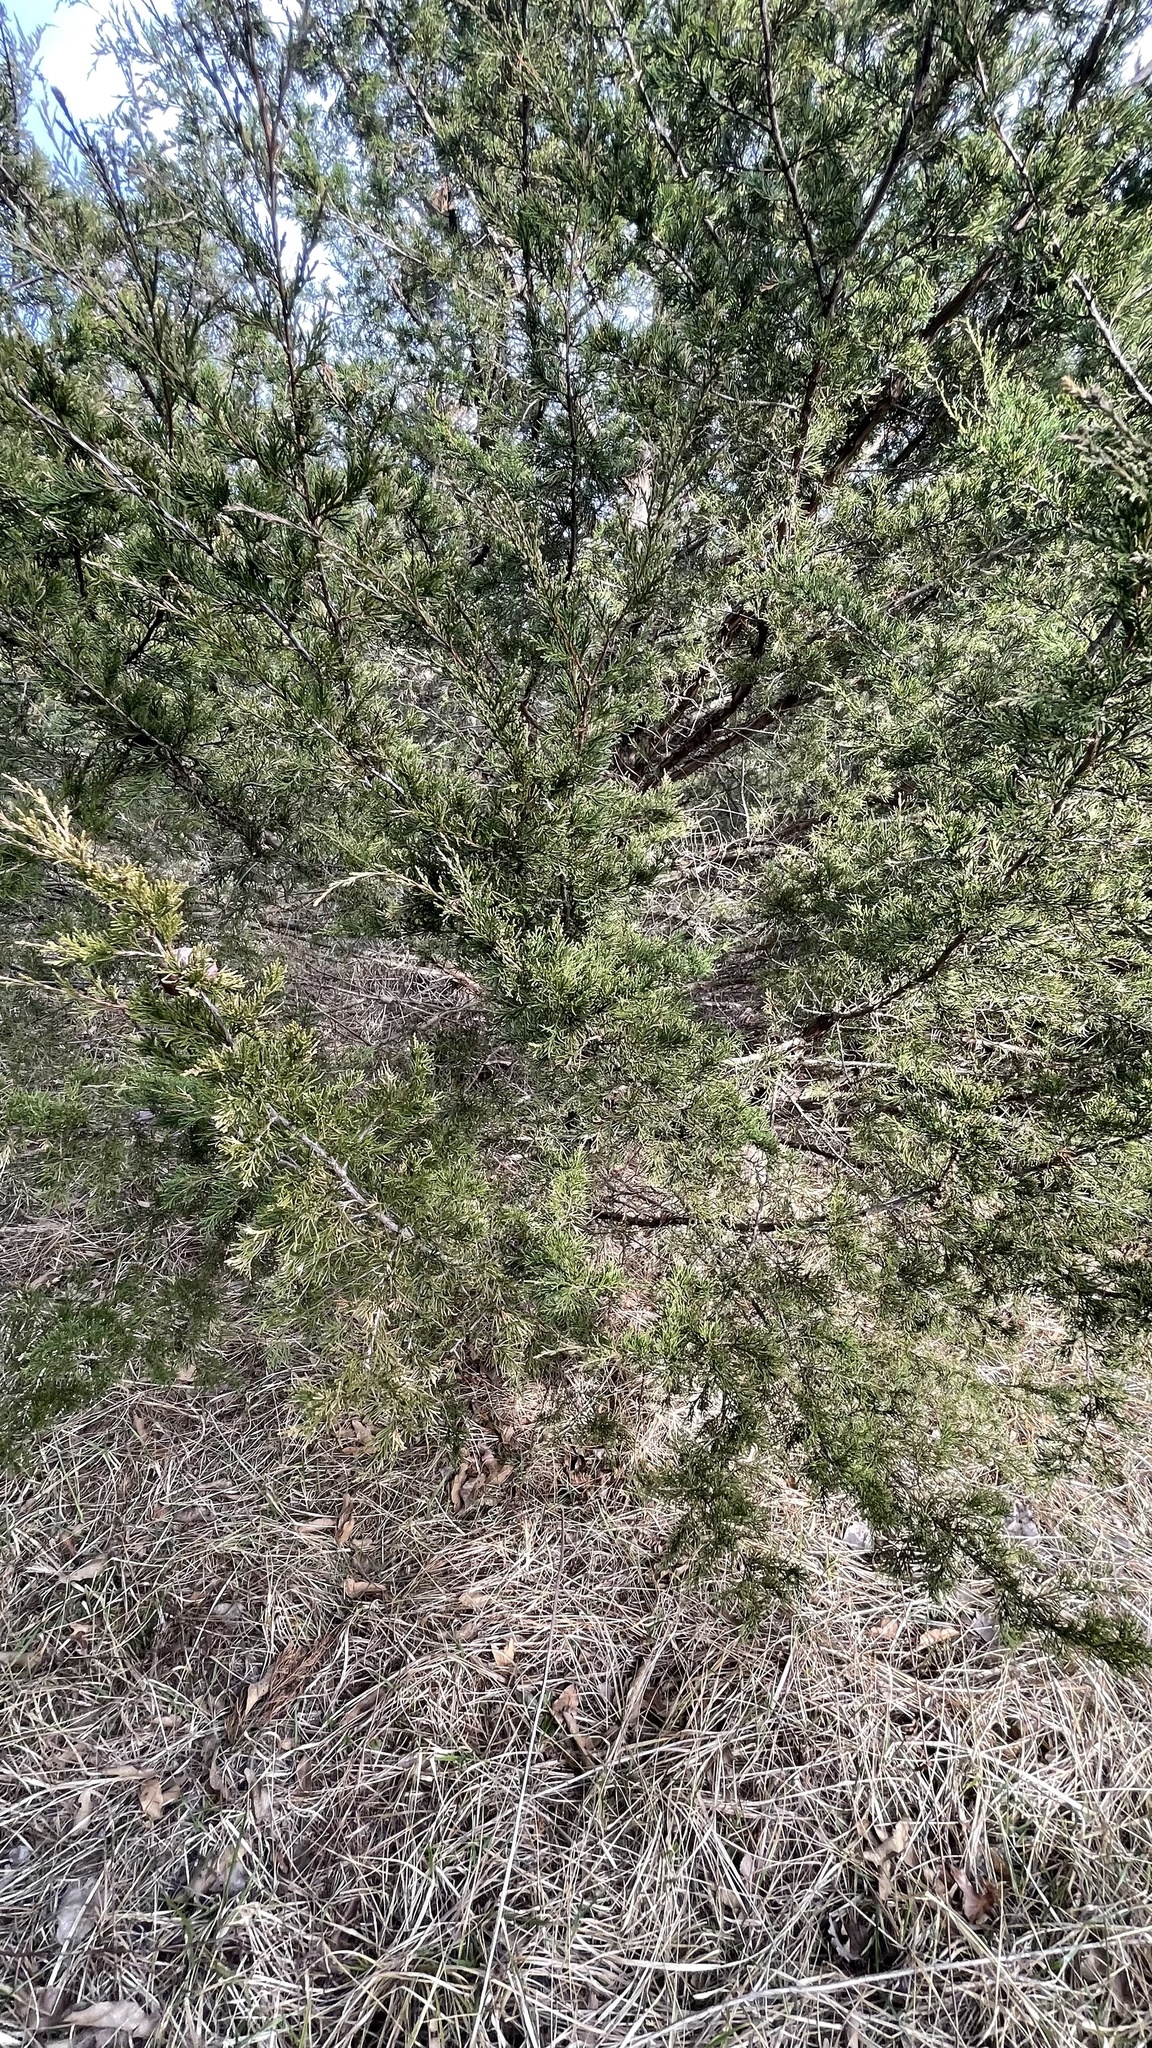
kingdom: Plantae
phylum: Tracheophyta
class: Pinopsida
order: Pinales
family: Cupressaceae
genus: Juniperus
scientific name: Juniperus virginiana
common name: Red juniper
